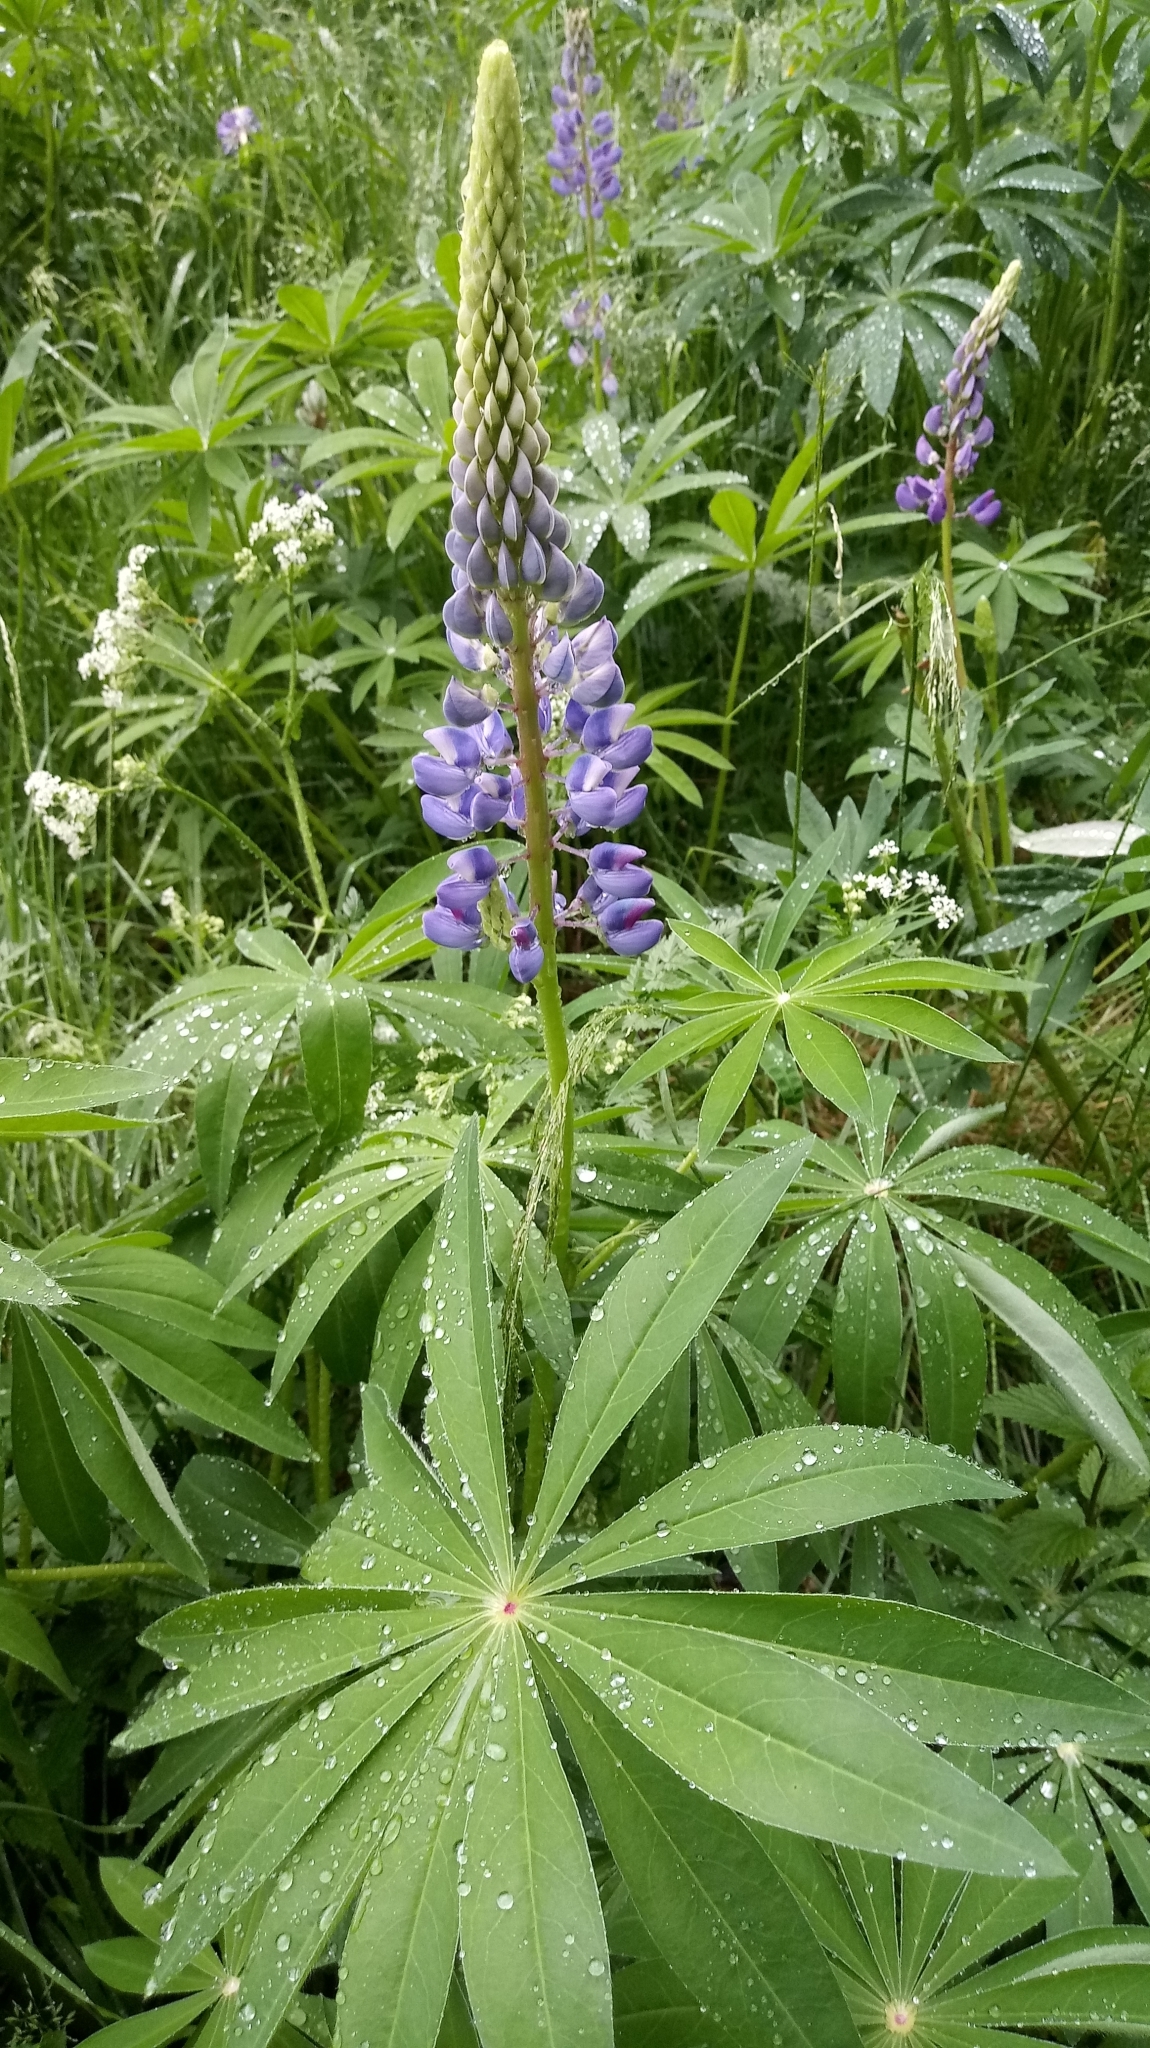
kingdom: Plantae
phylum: Tracheophyta
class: Magnoliopsida
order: Fabales
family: Fabaceae
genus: Lupinus
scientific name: Lupinus polyphyllus
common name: Garden lupin
